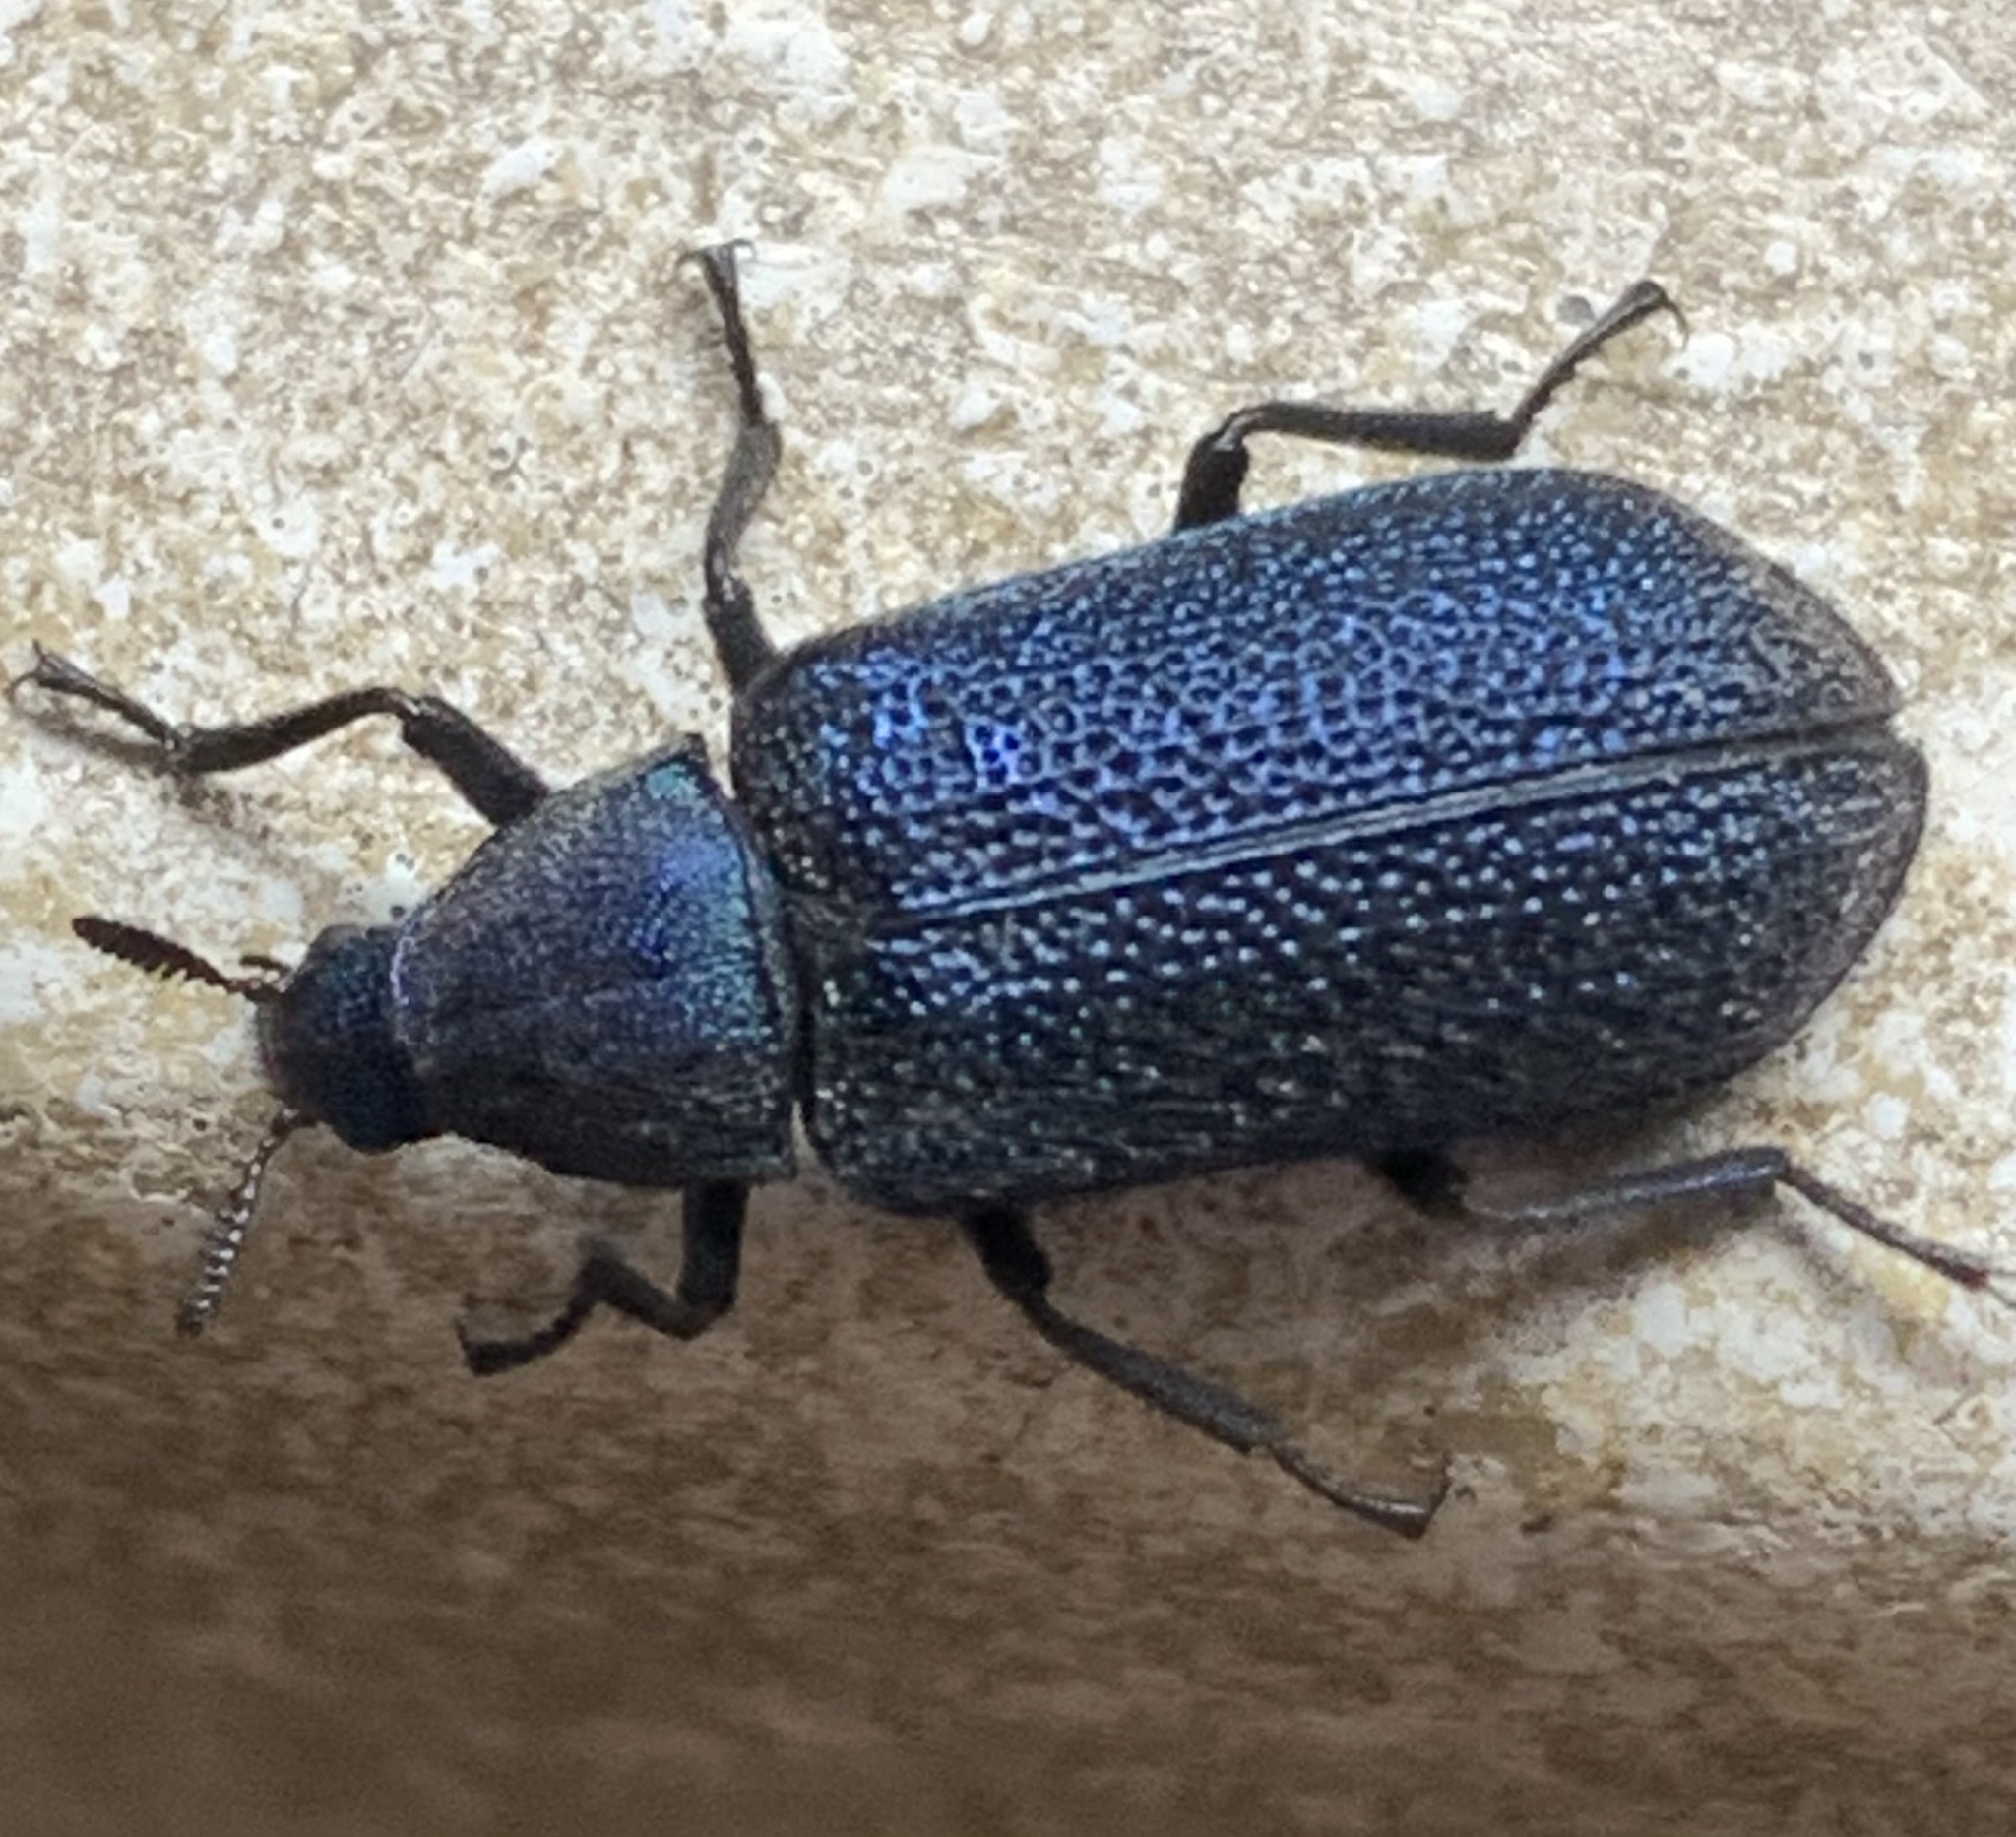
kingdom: Animalia
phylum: Arthropoda
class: Insecta
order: Coleoptera
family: Melyridae
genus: Melyris
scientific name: Melyris
